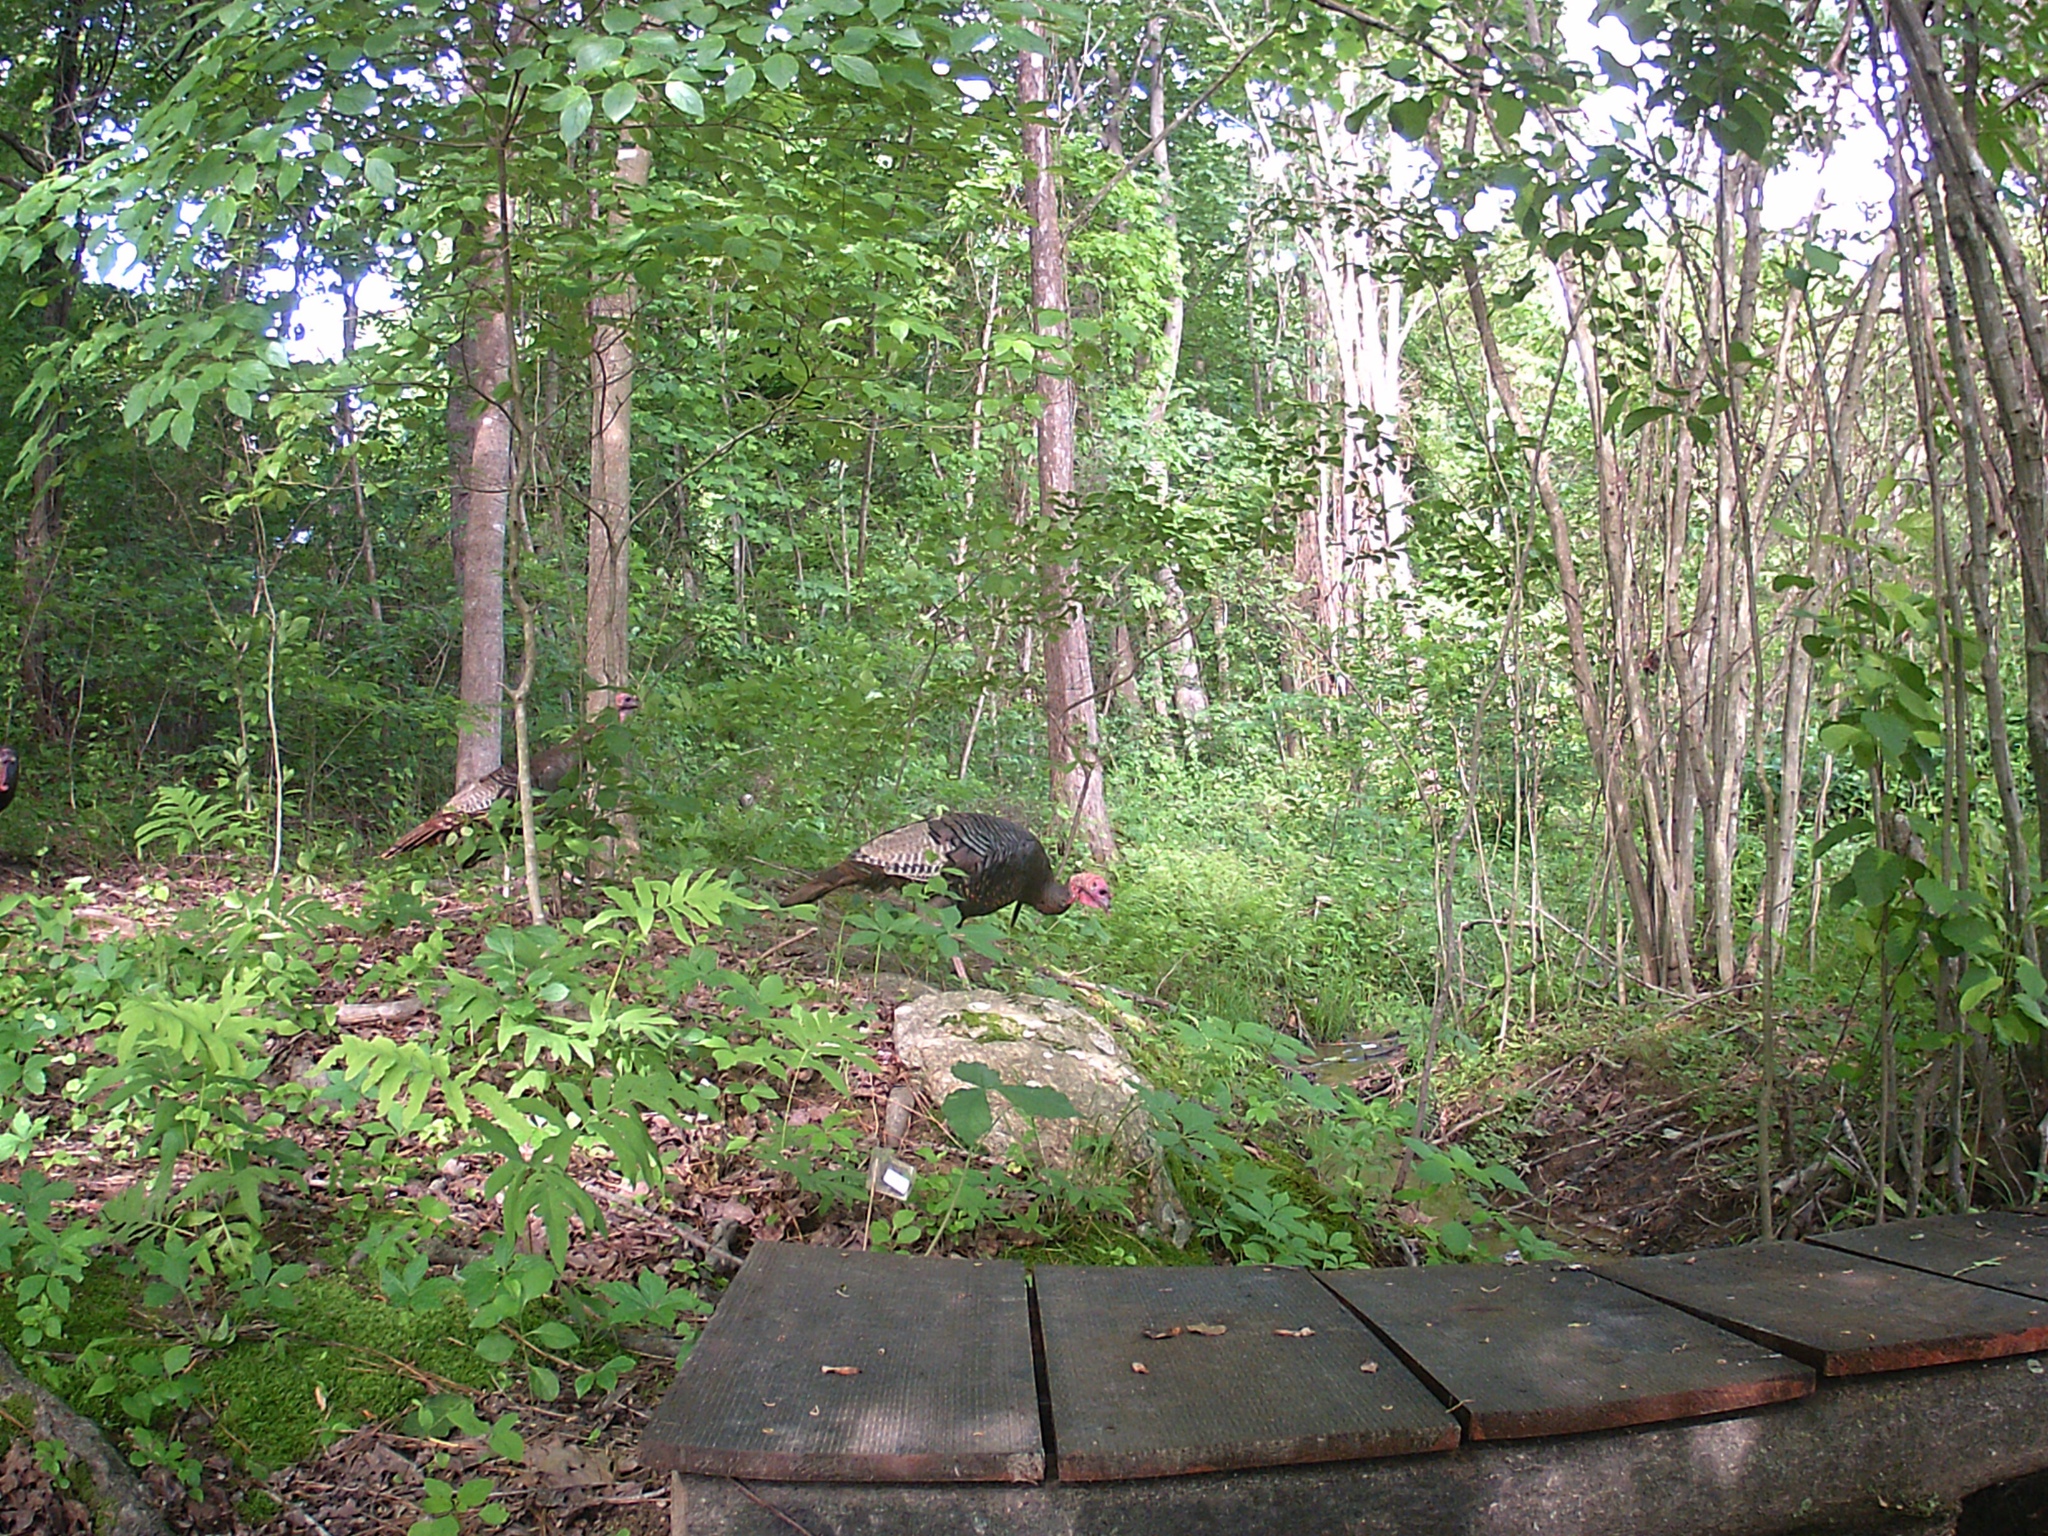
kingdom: Animalia
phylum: Chordata
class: Aves
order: Galliformes
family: Phasianidae
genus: Meleagris
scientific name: Meleagris gallopavo
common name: Wild turkey
